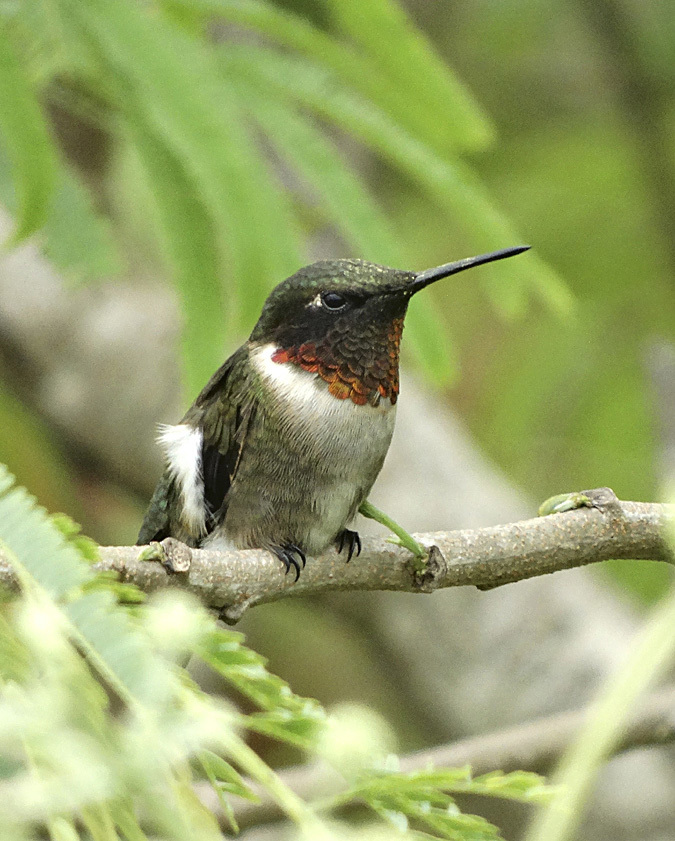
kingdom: Animalia
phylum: Chordata
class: Aves
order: Apodiformes
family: Trochilidae
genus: Archilochus
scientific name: Archilochus colubris
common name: Ruby-throated hummingbird
